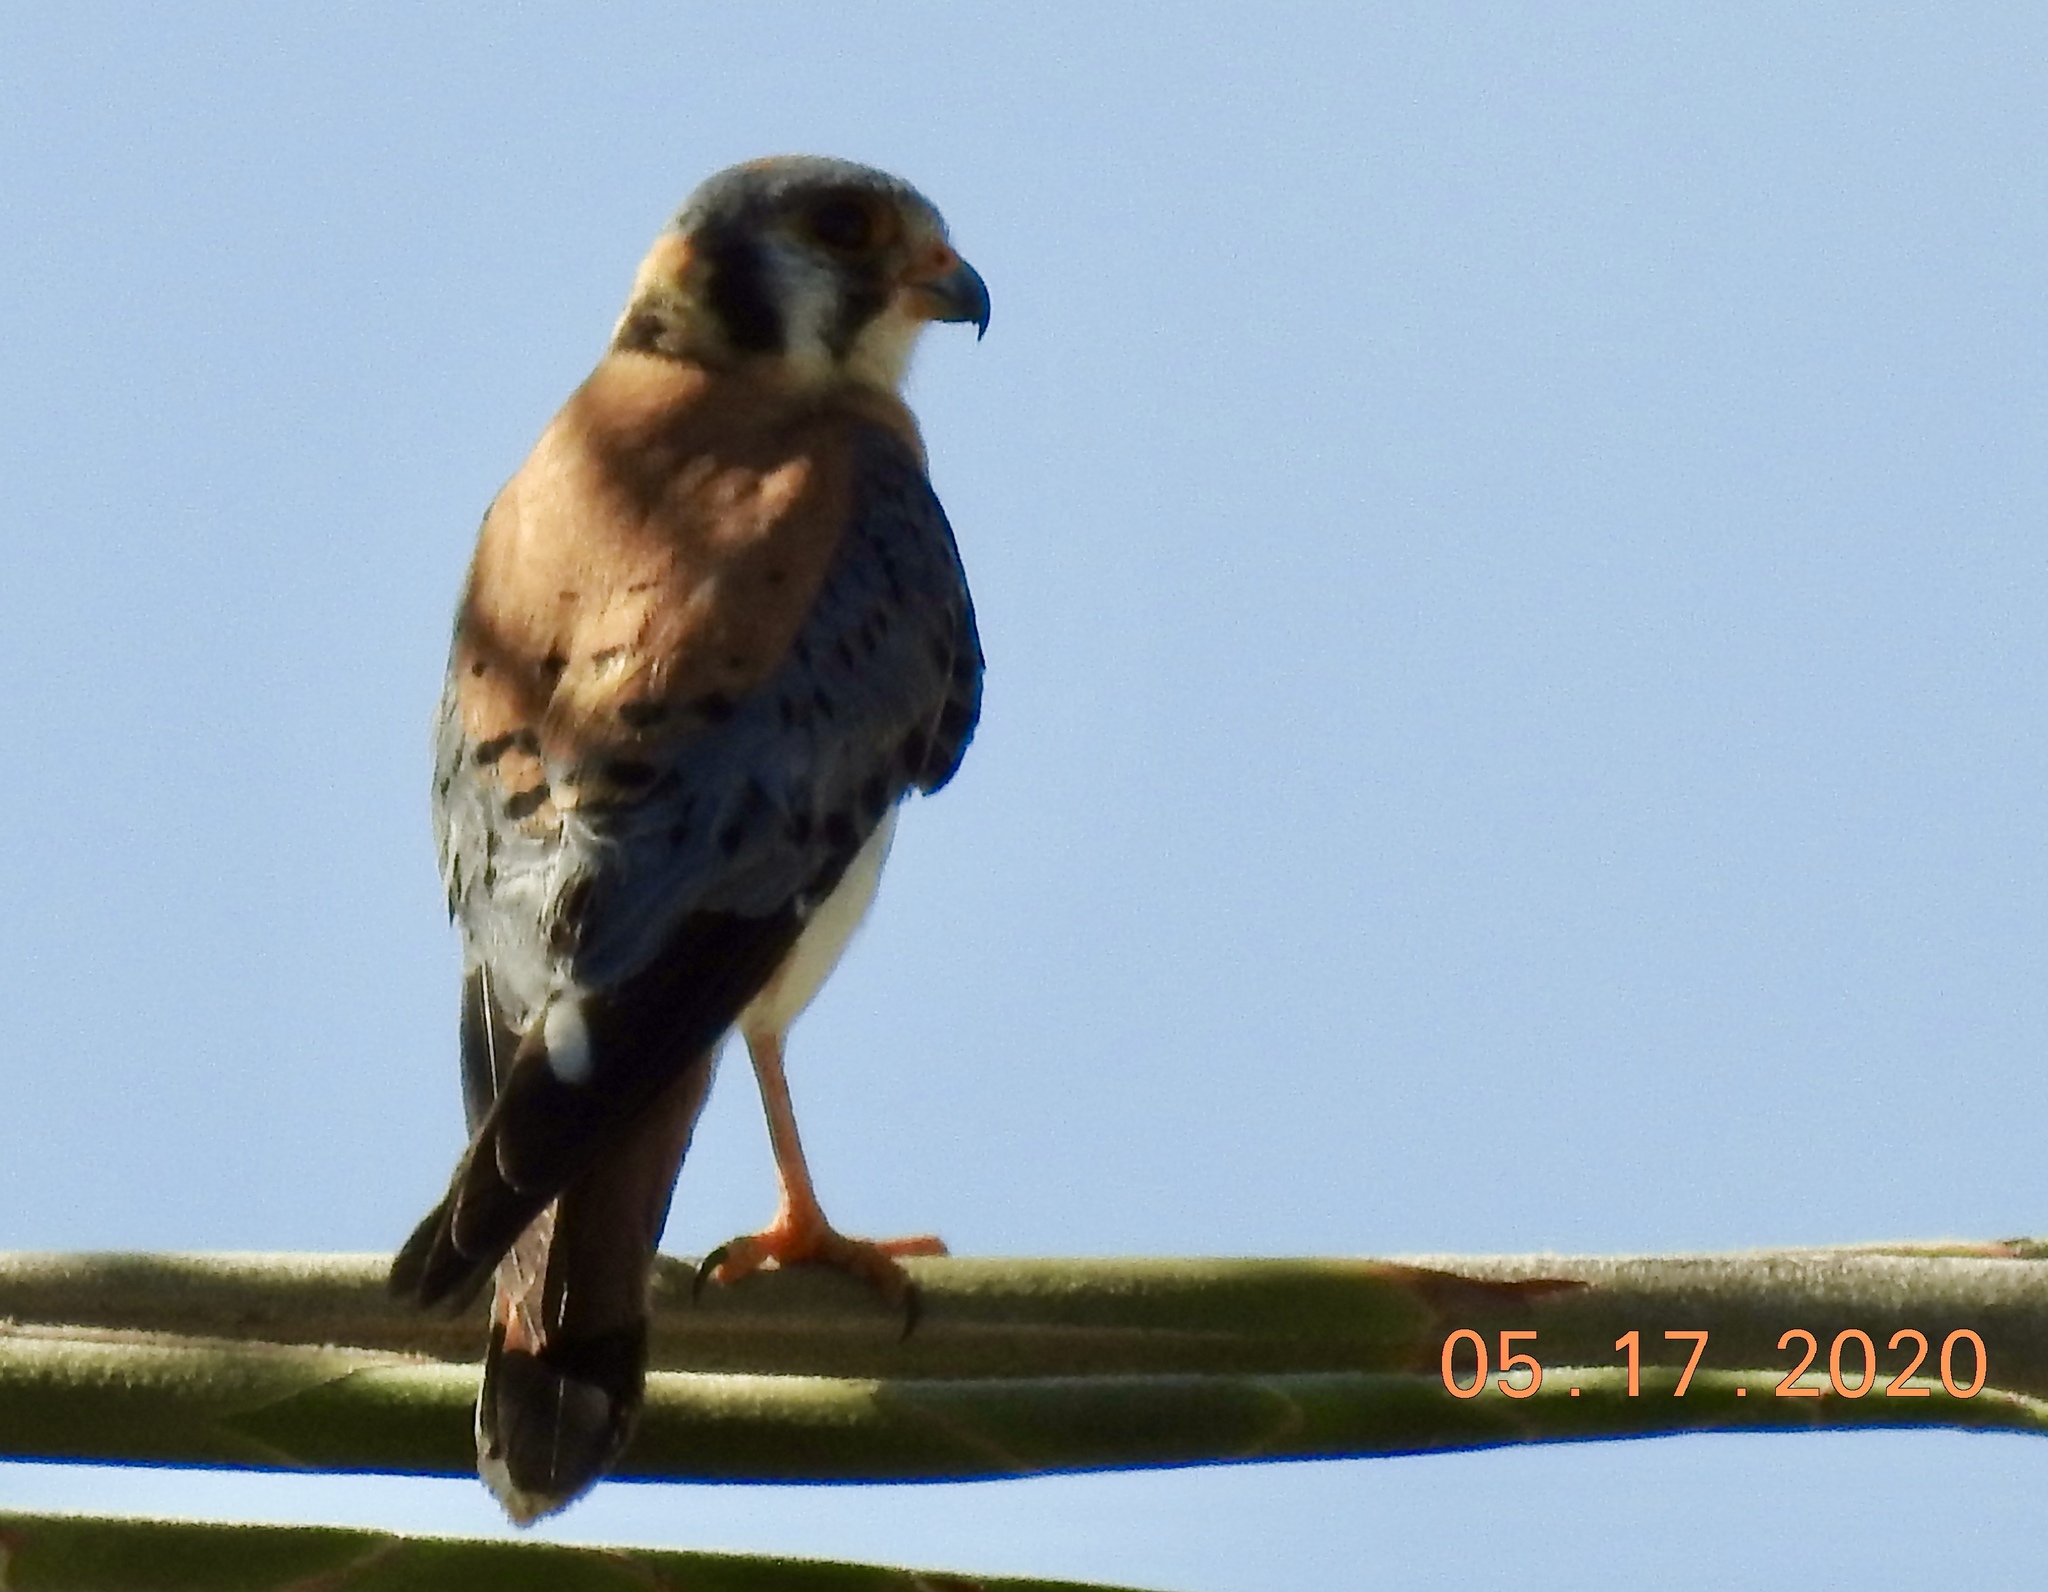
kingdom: Animalia
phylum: Chordata
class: Aves
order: Falconiformes
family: Falconidae
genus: Falco
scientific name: Falco sparverius
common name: American kestrel
